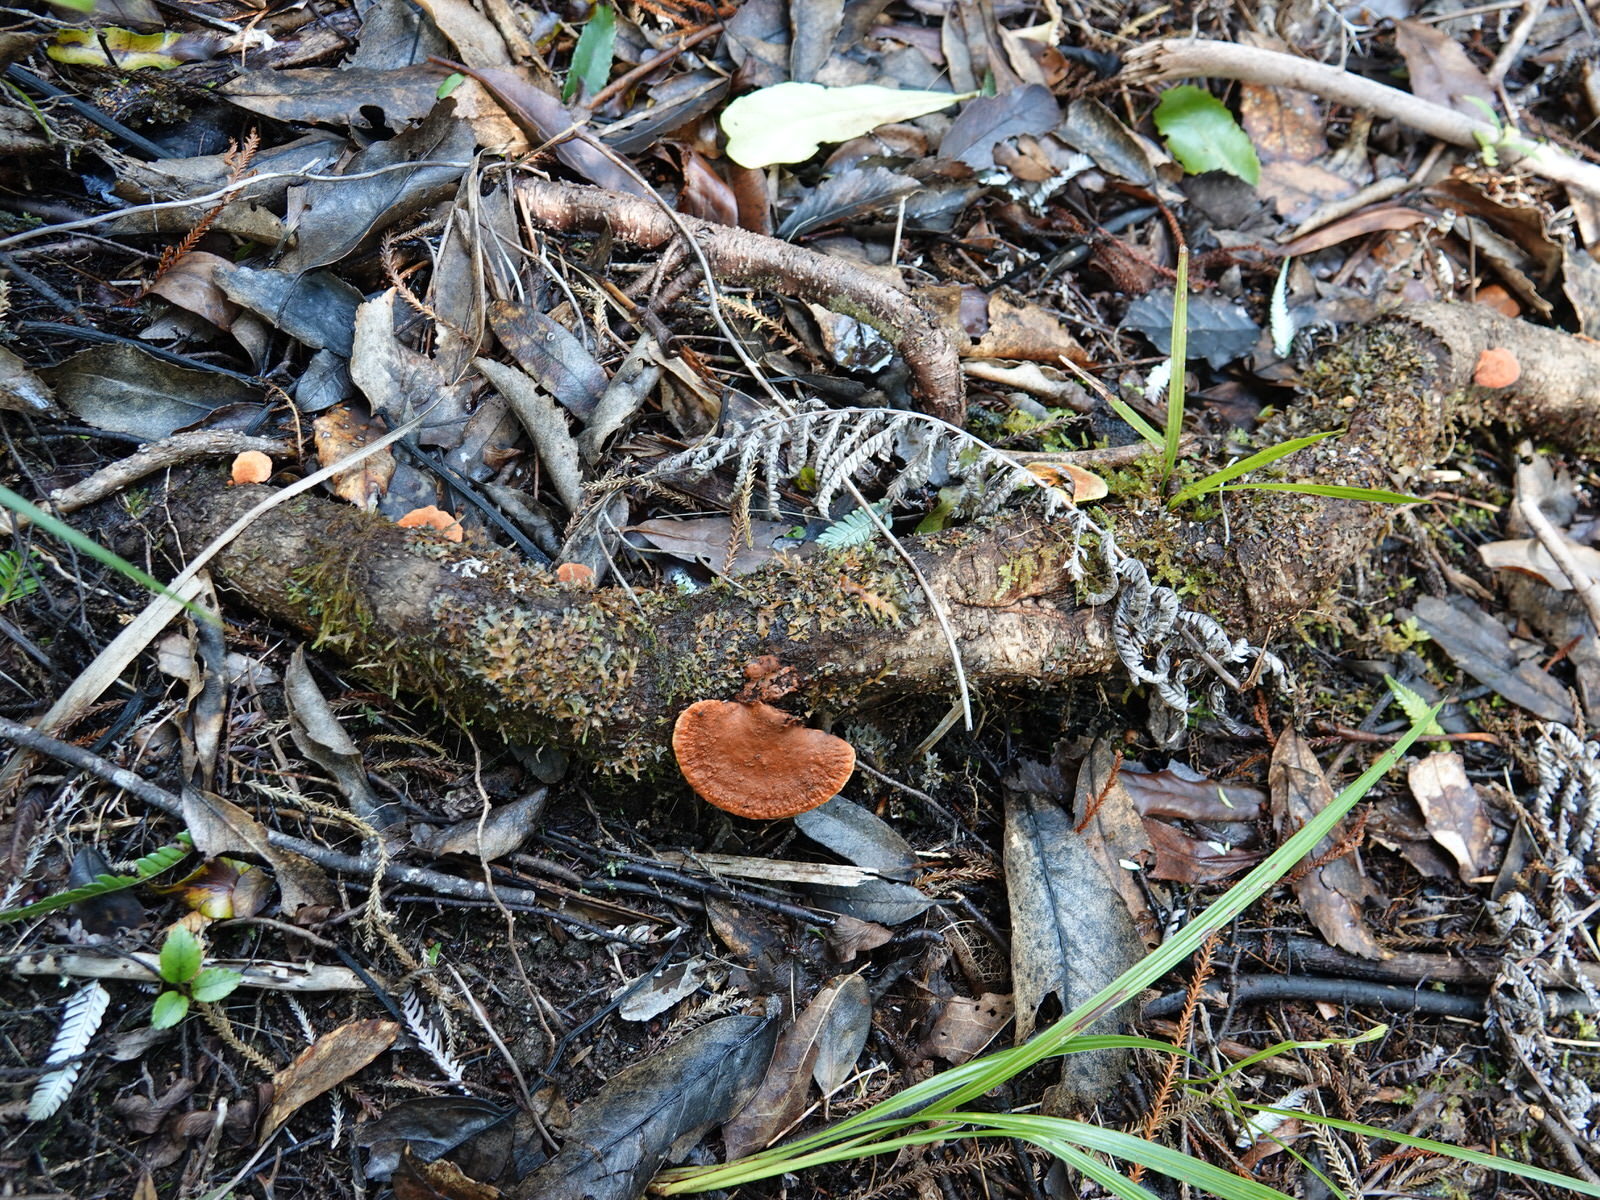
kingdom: Fungi
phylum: Basidiomycota
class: Agaricomycetes
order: Polyporales
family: Polyporaceae
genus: Trametes
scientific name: Trametes coccinea
